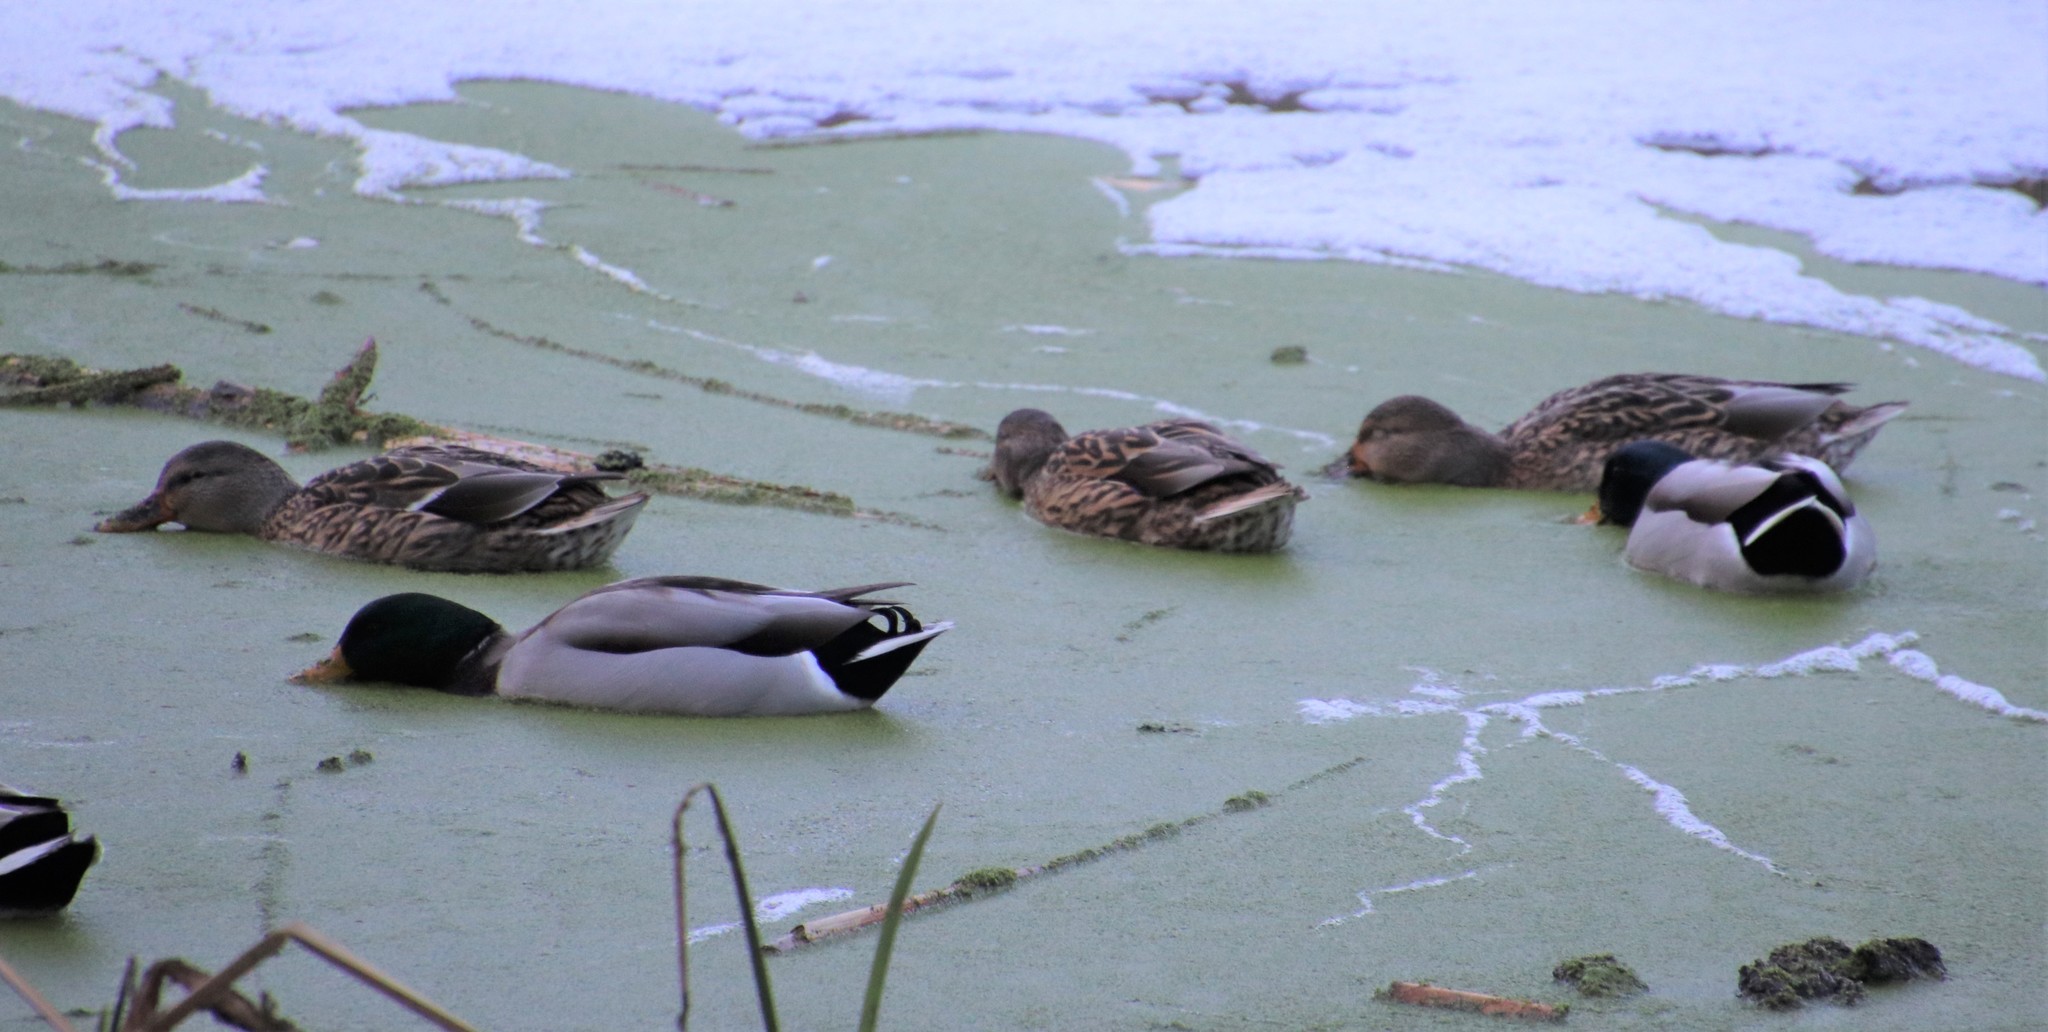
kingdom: Animalia
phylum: Chordata
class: Aves
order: Anseriformes
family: Anatidae
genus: Anas
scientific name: Anas platyrhynchos
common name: Mallard
